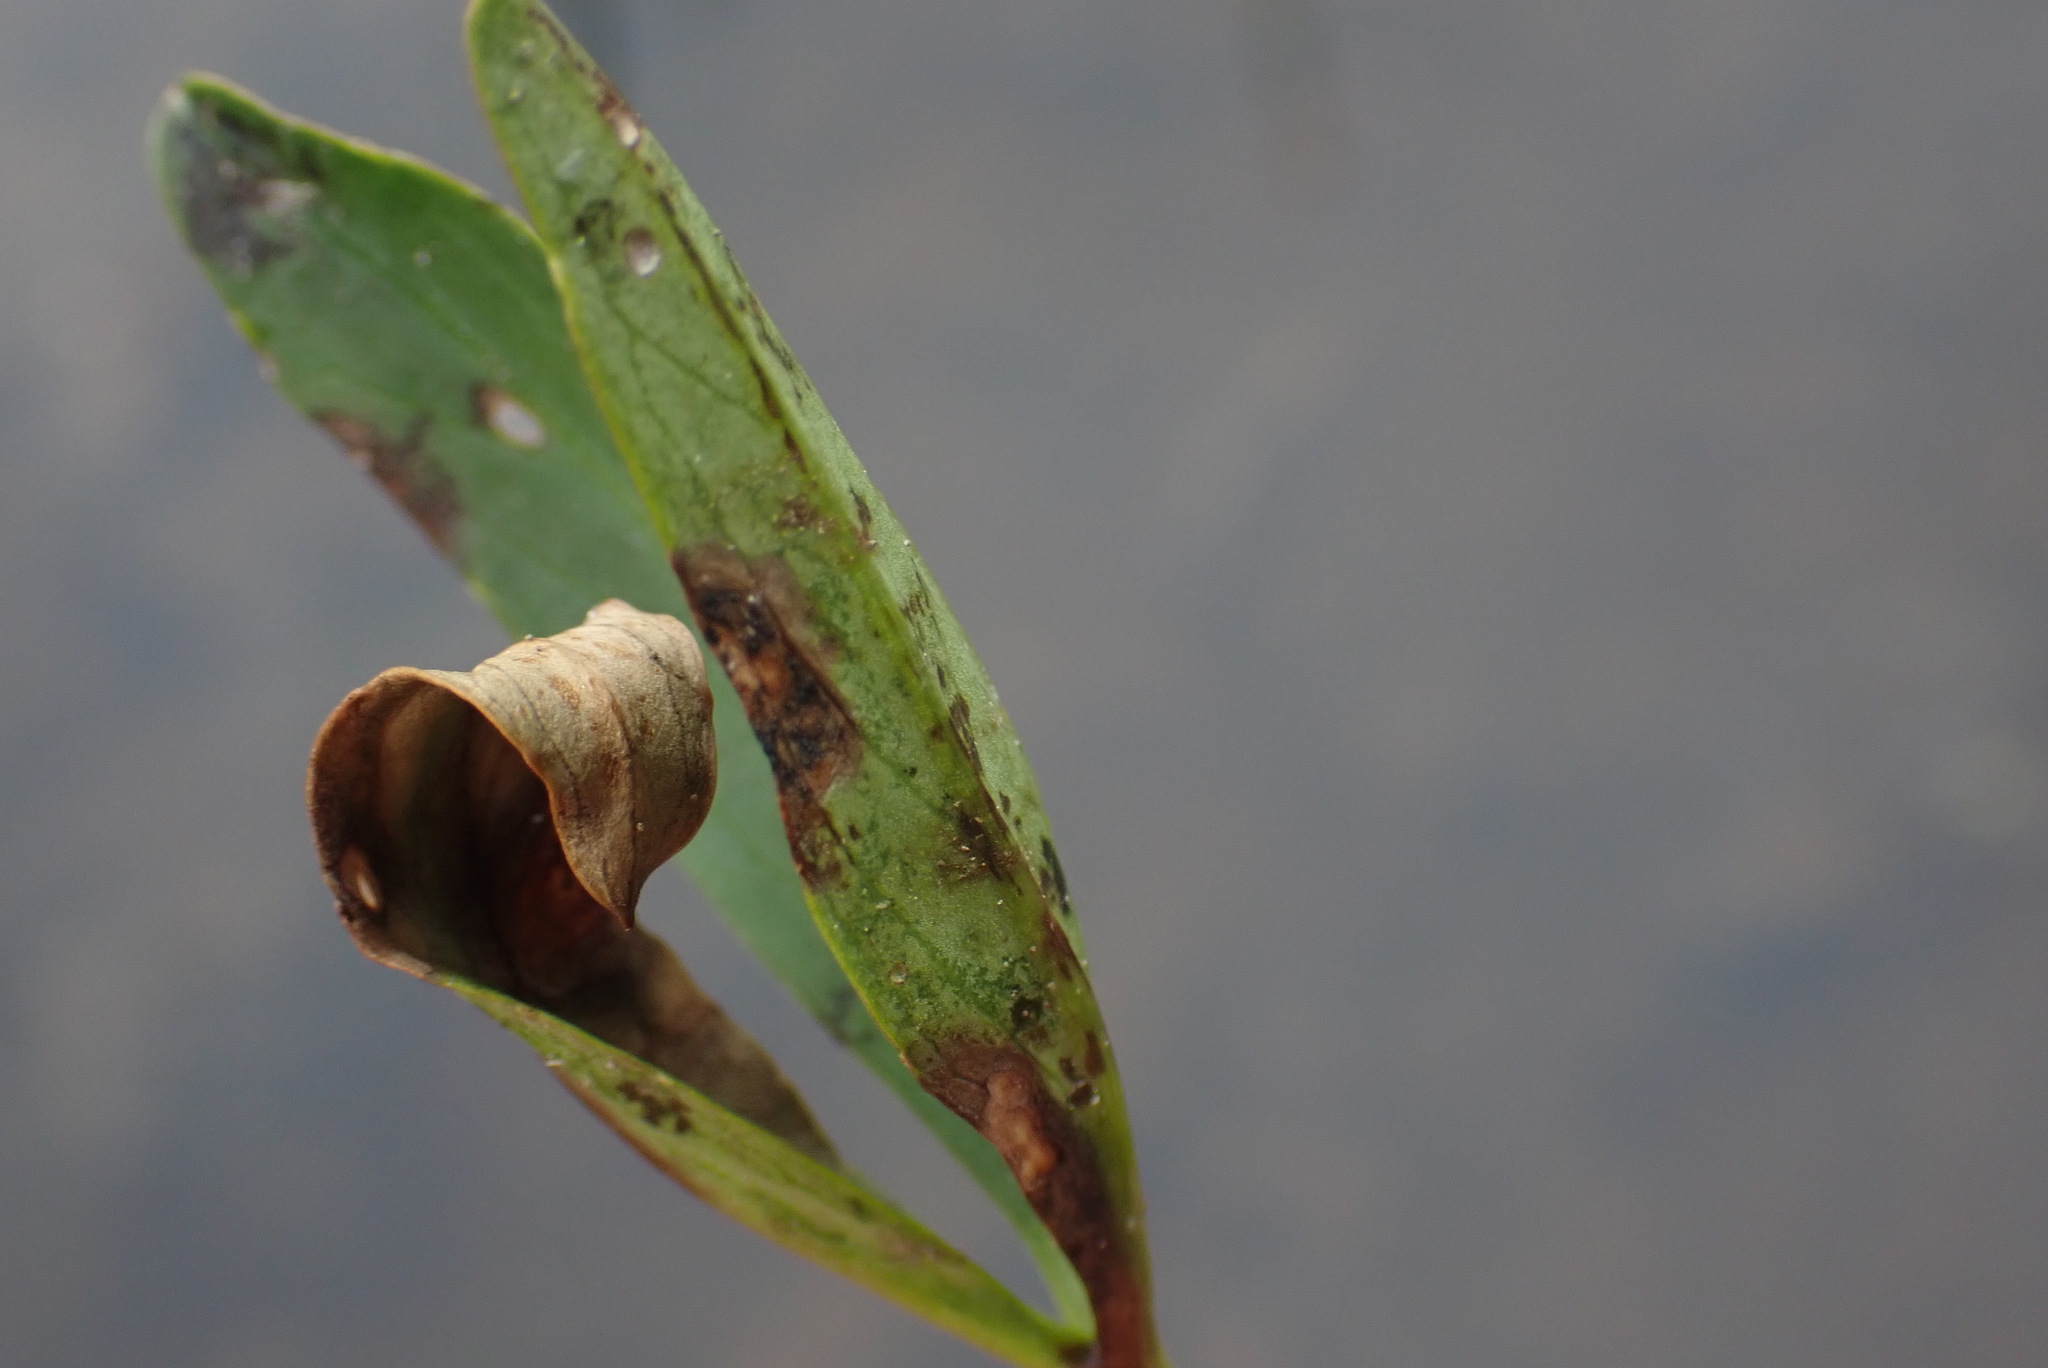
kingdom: Plantae
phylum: Tracheophyta
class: Magnoliopsida
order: Asterales
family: Menyanthaceae
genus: Menyanthes
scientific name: Menyanthes trifoliata
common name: Bogbean
